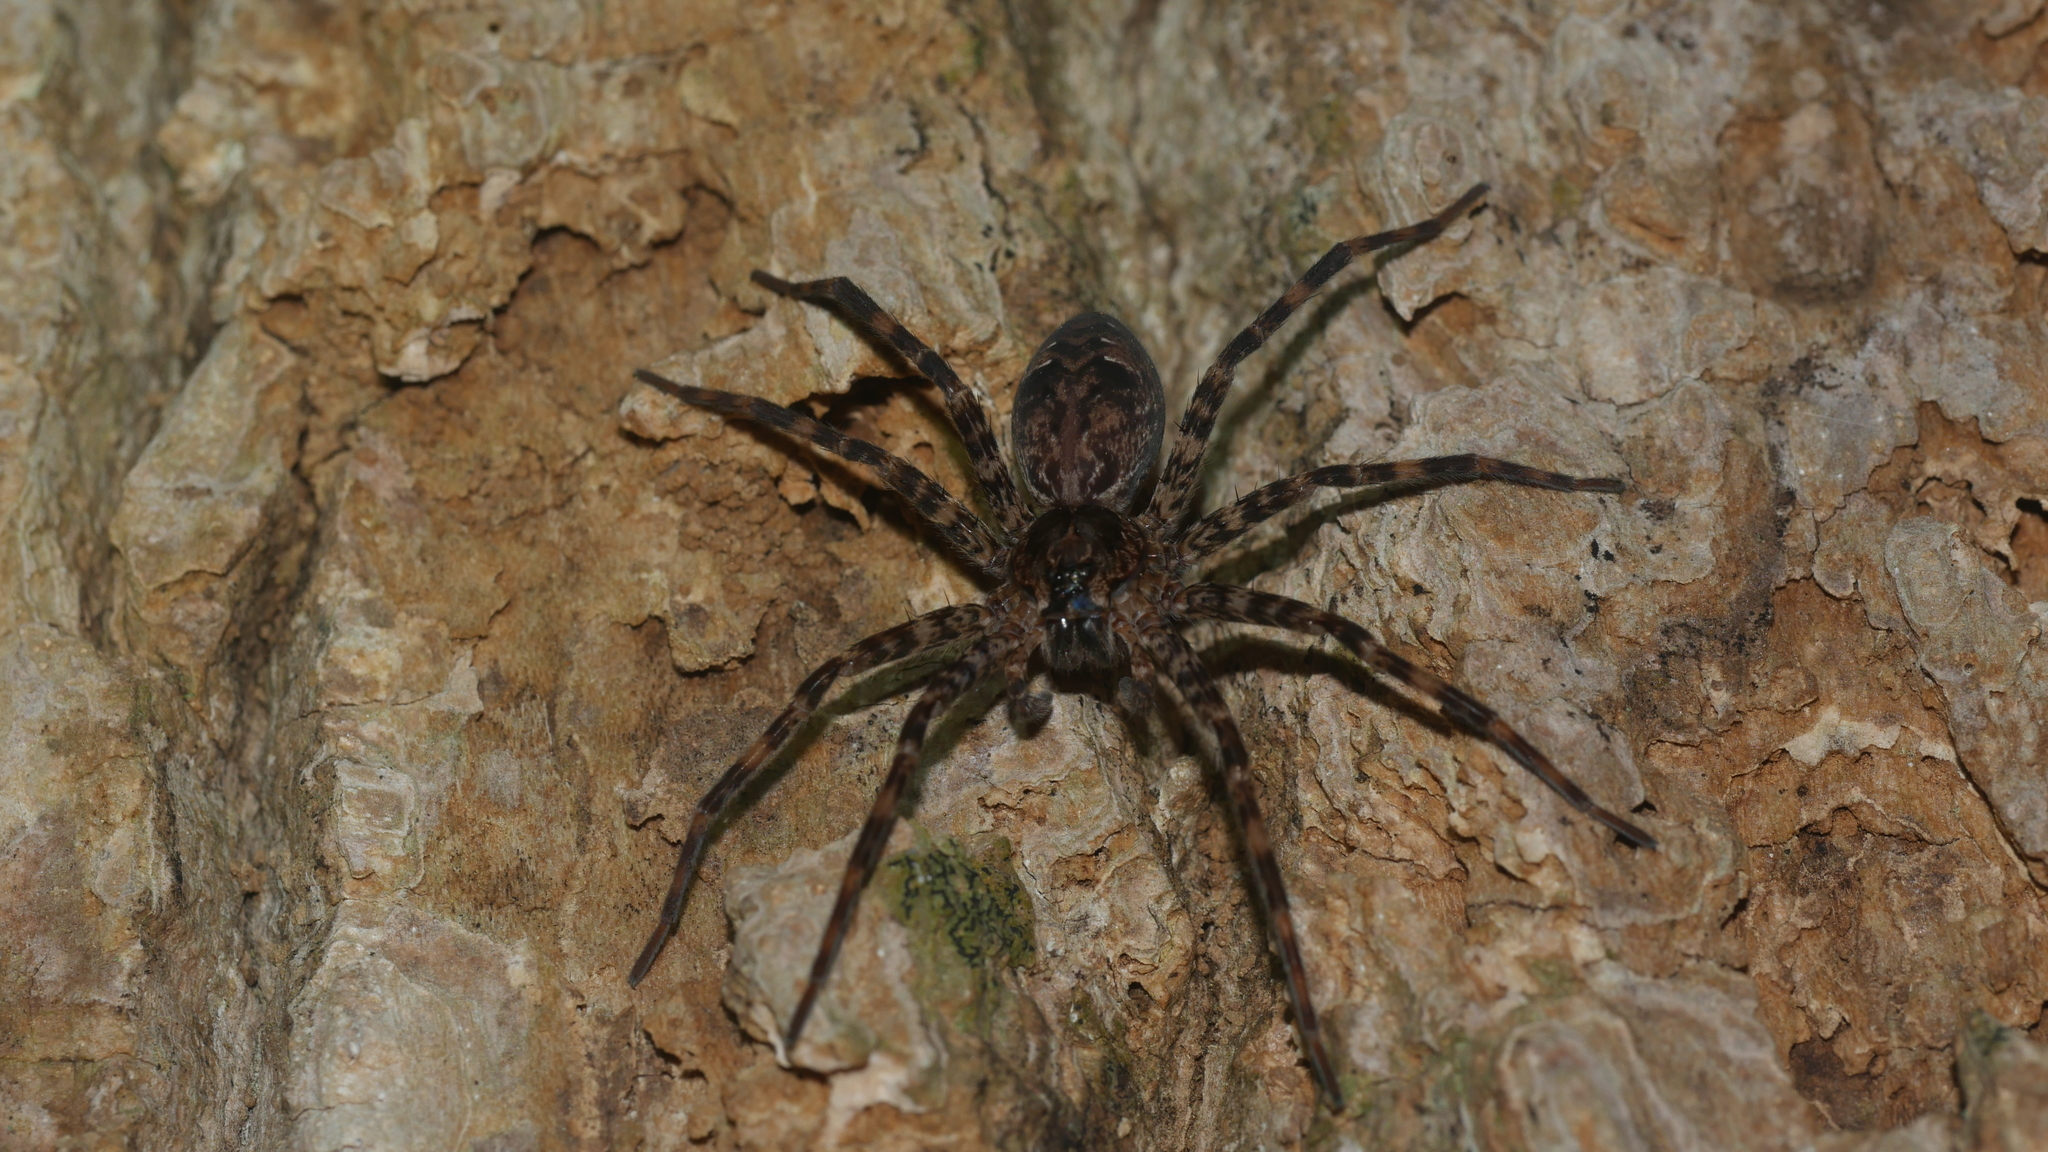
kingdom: Animalia
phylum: Arthropoda
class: Arachnida
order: Araneae
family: Pisauridae
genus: Dolomedes
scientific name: Dolomedes tenebrosus
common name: Dark fishing spider
